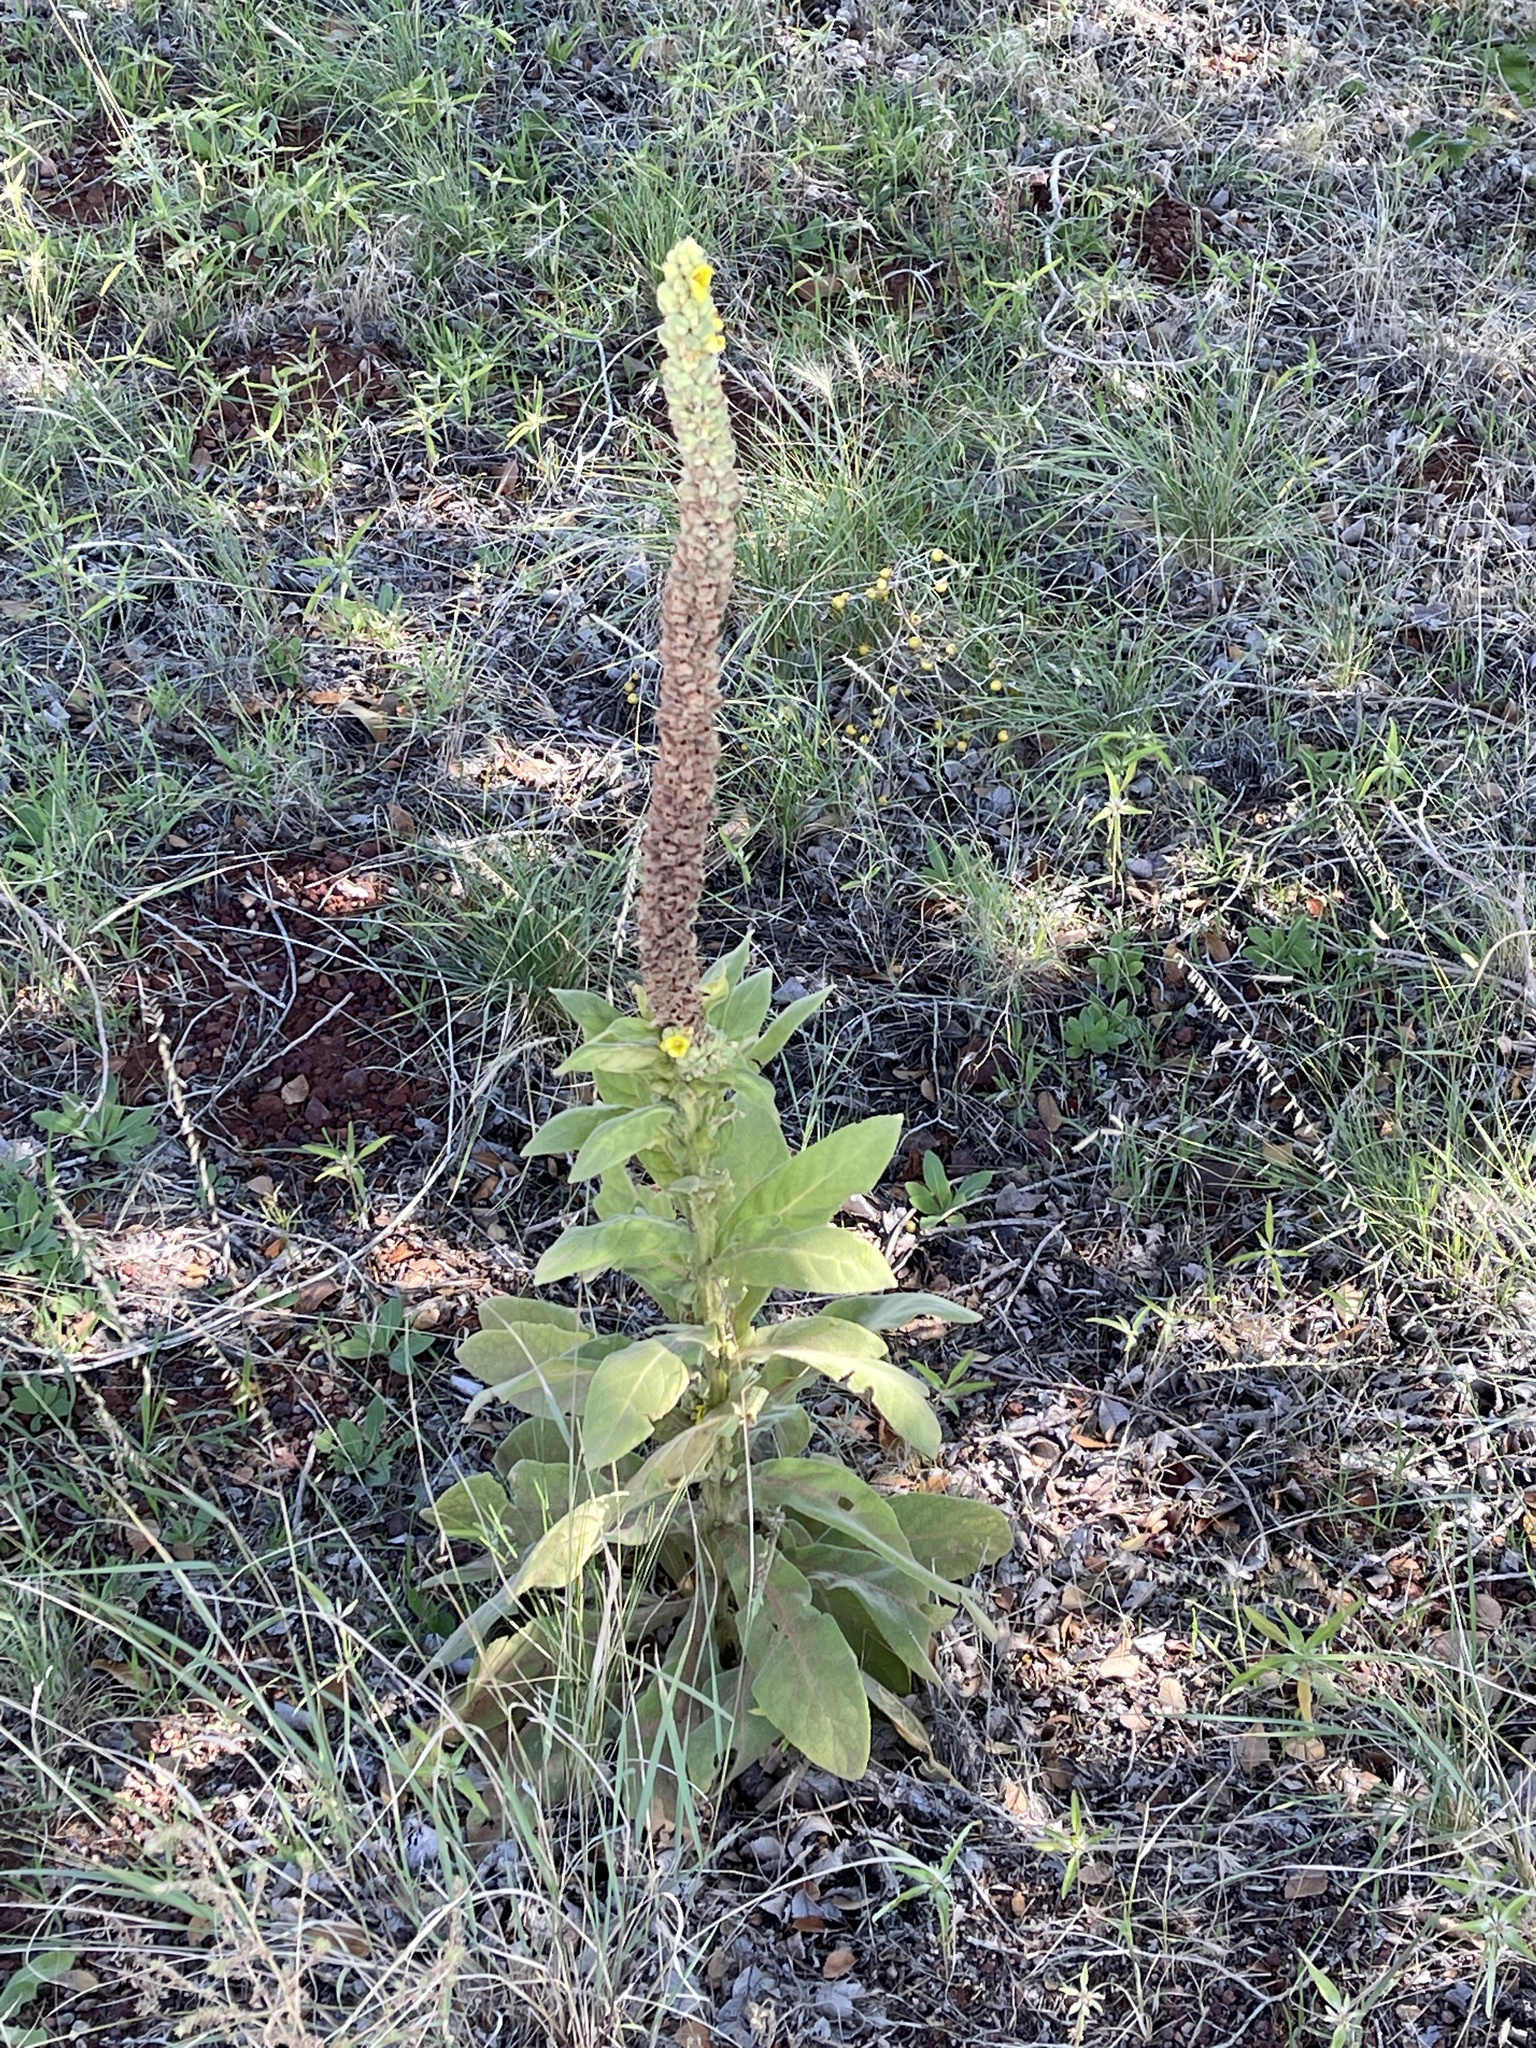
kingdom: Plantae
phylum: Tracheophyta
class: Magnoliopsida
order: Lamiales
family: Scrophulariaceae
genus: Verbascum
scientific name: Verbascum thapsus
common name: Common mullein
